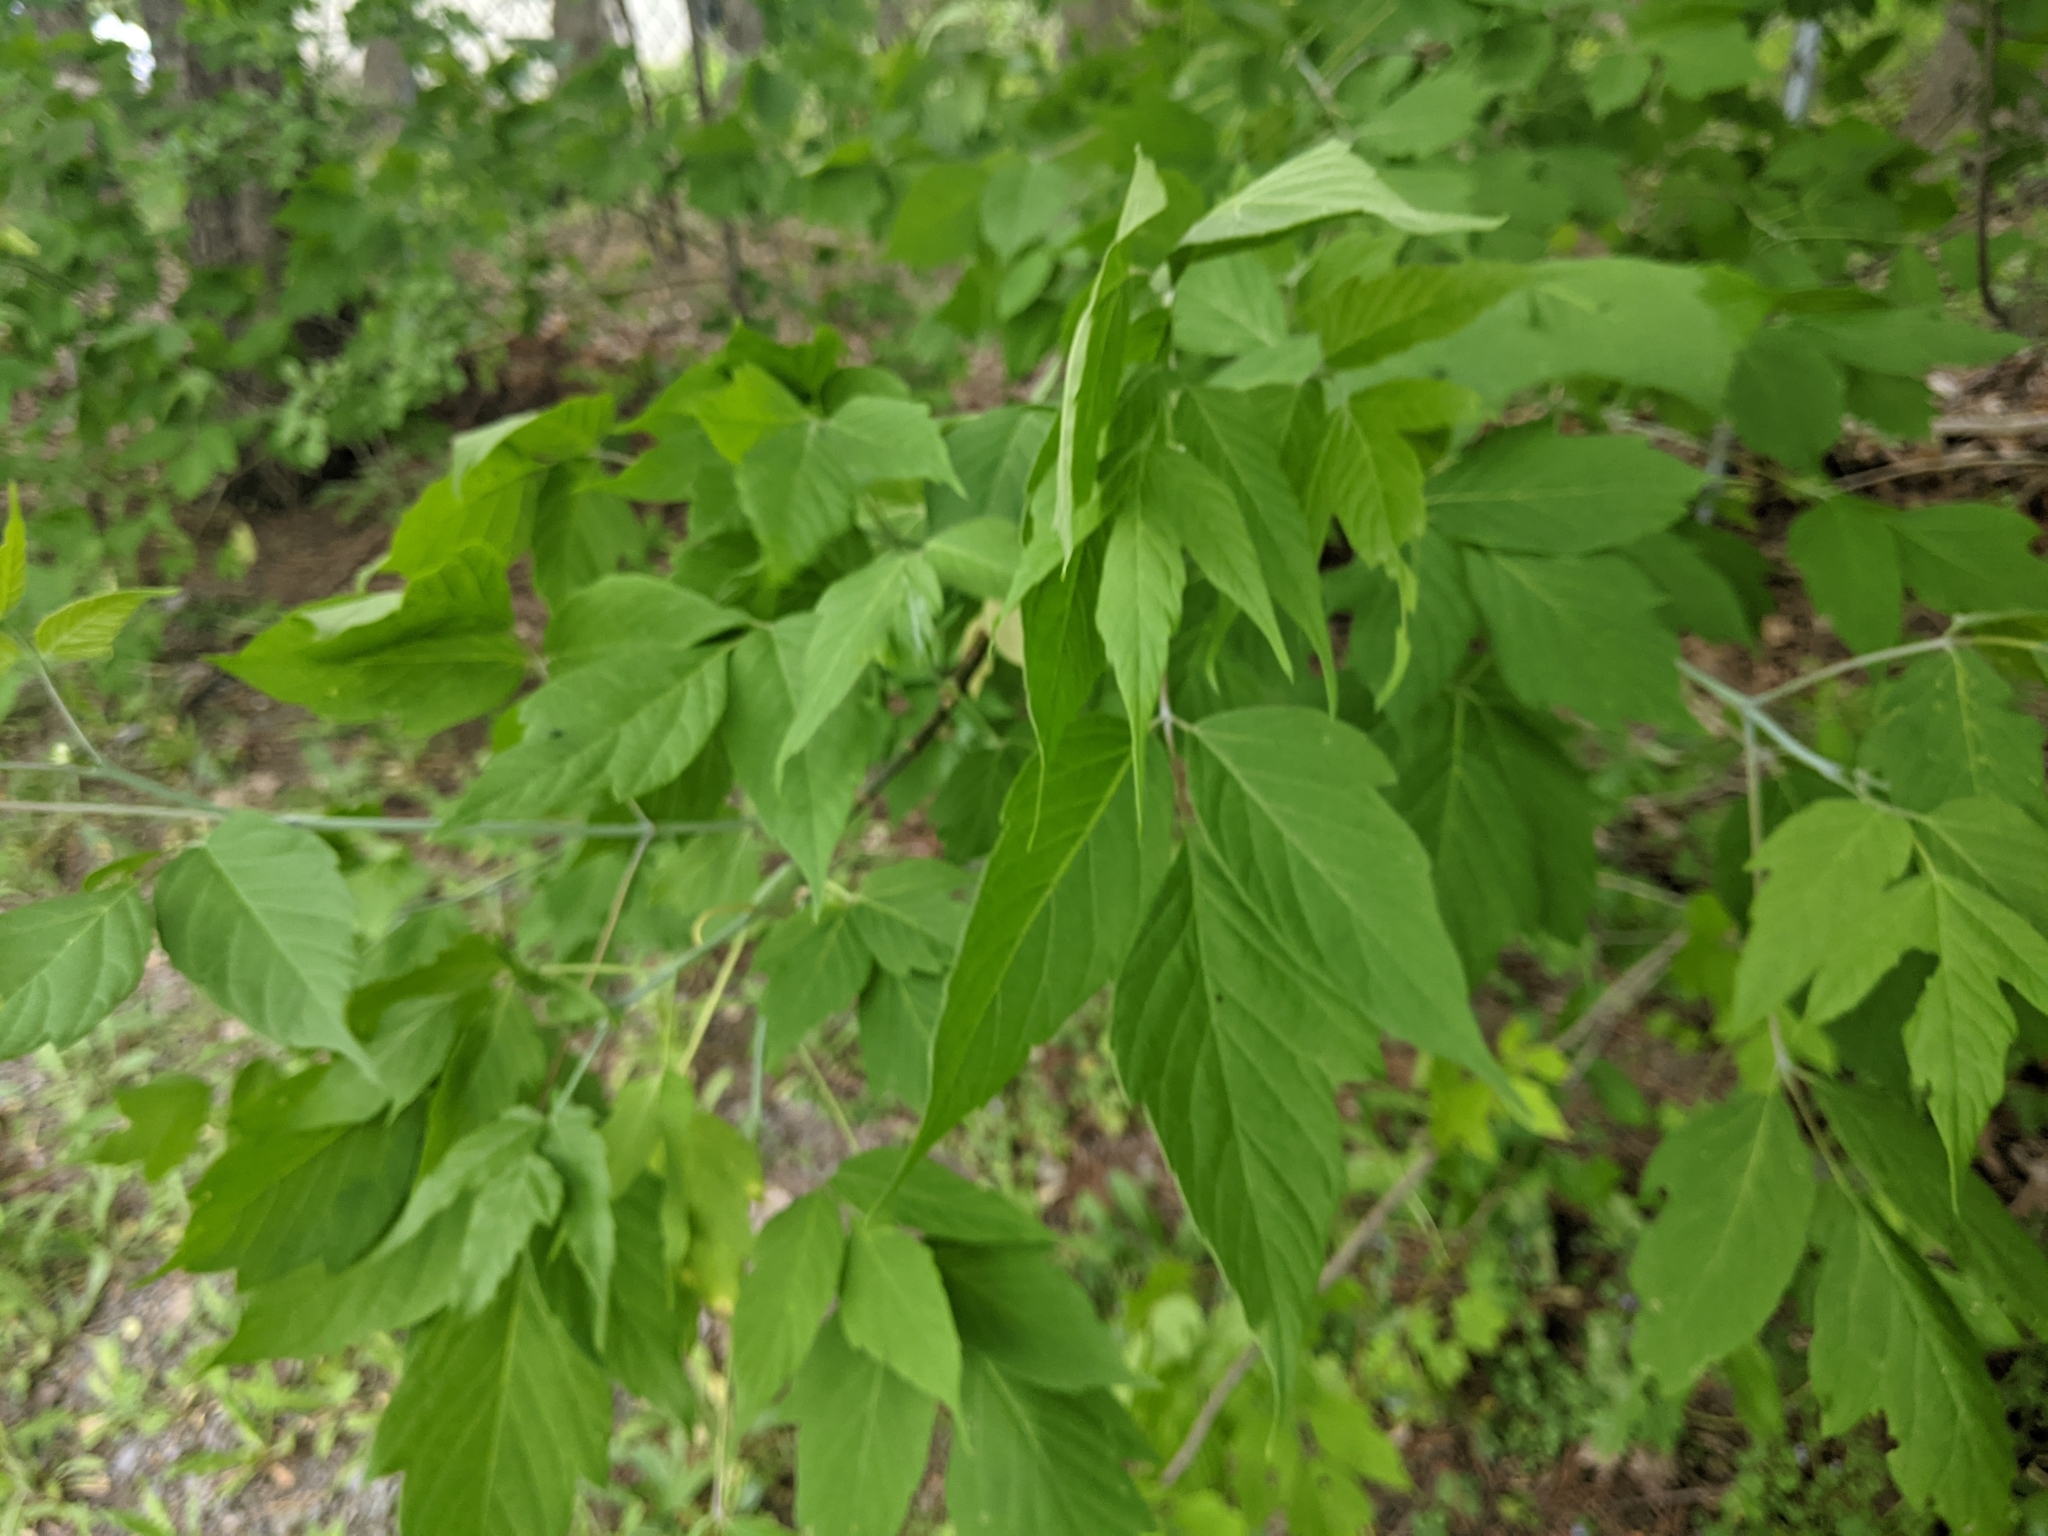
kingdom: Animalia
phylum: Arthropoda
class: Arachnida
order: Trombidiformes
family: Eriophyidae
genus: Aceria
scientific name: Aceria
